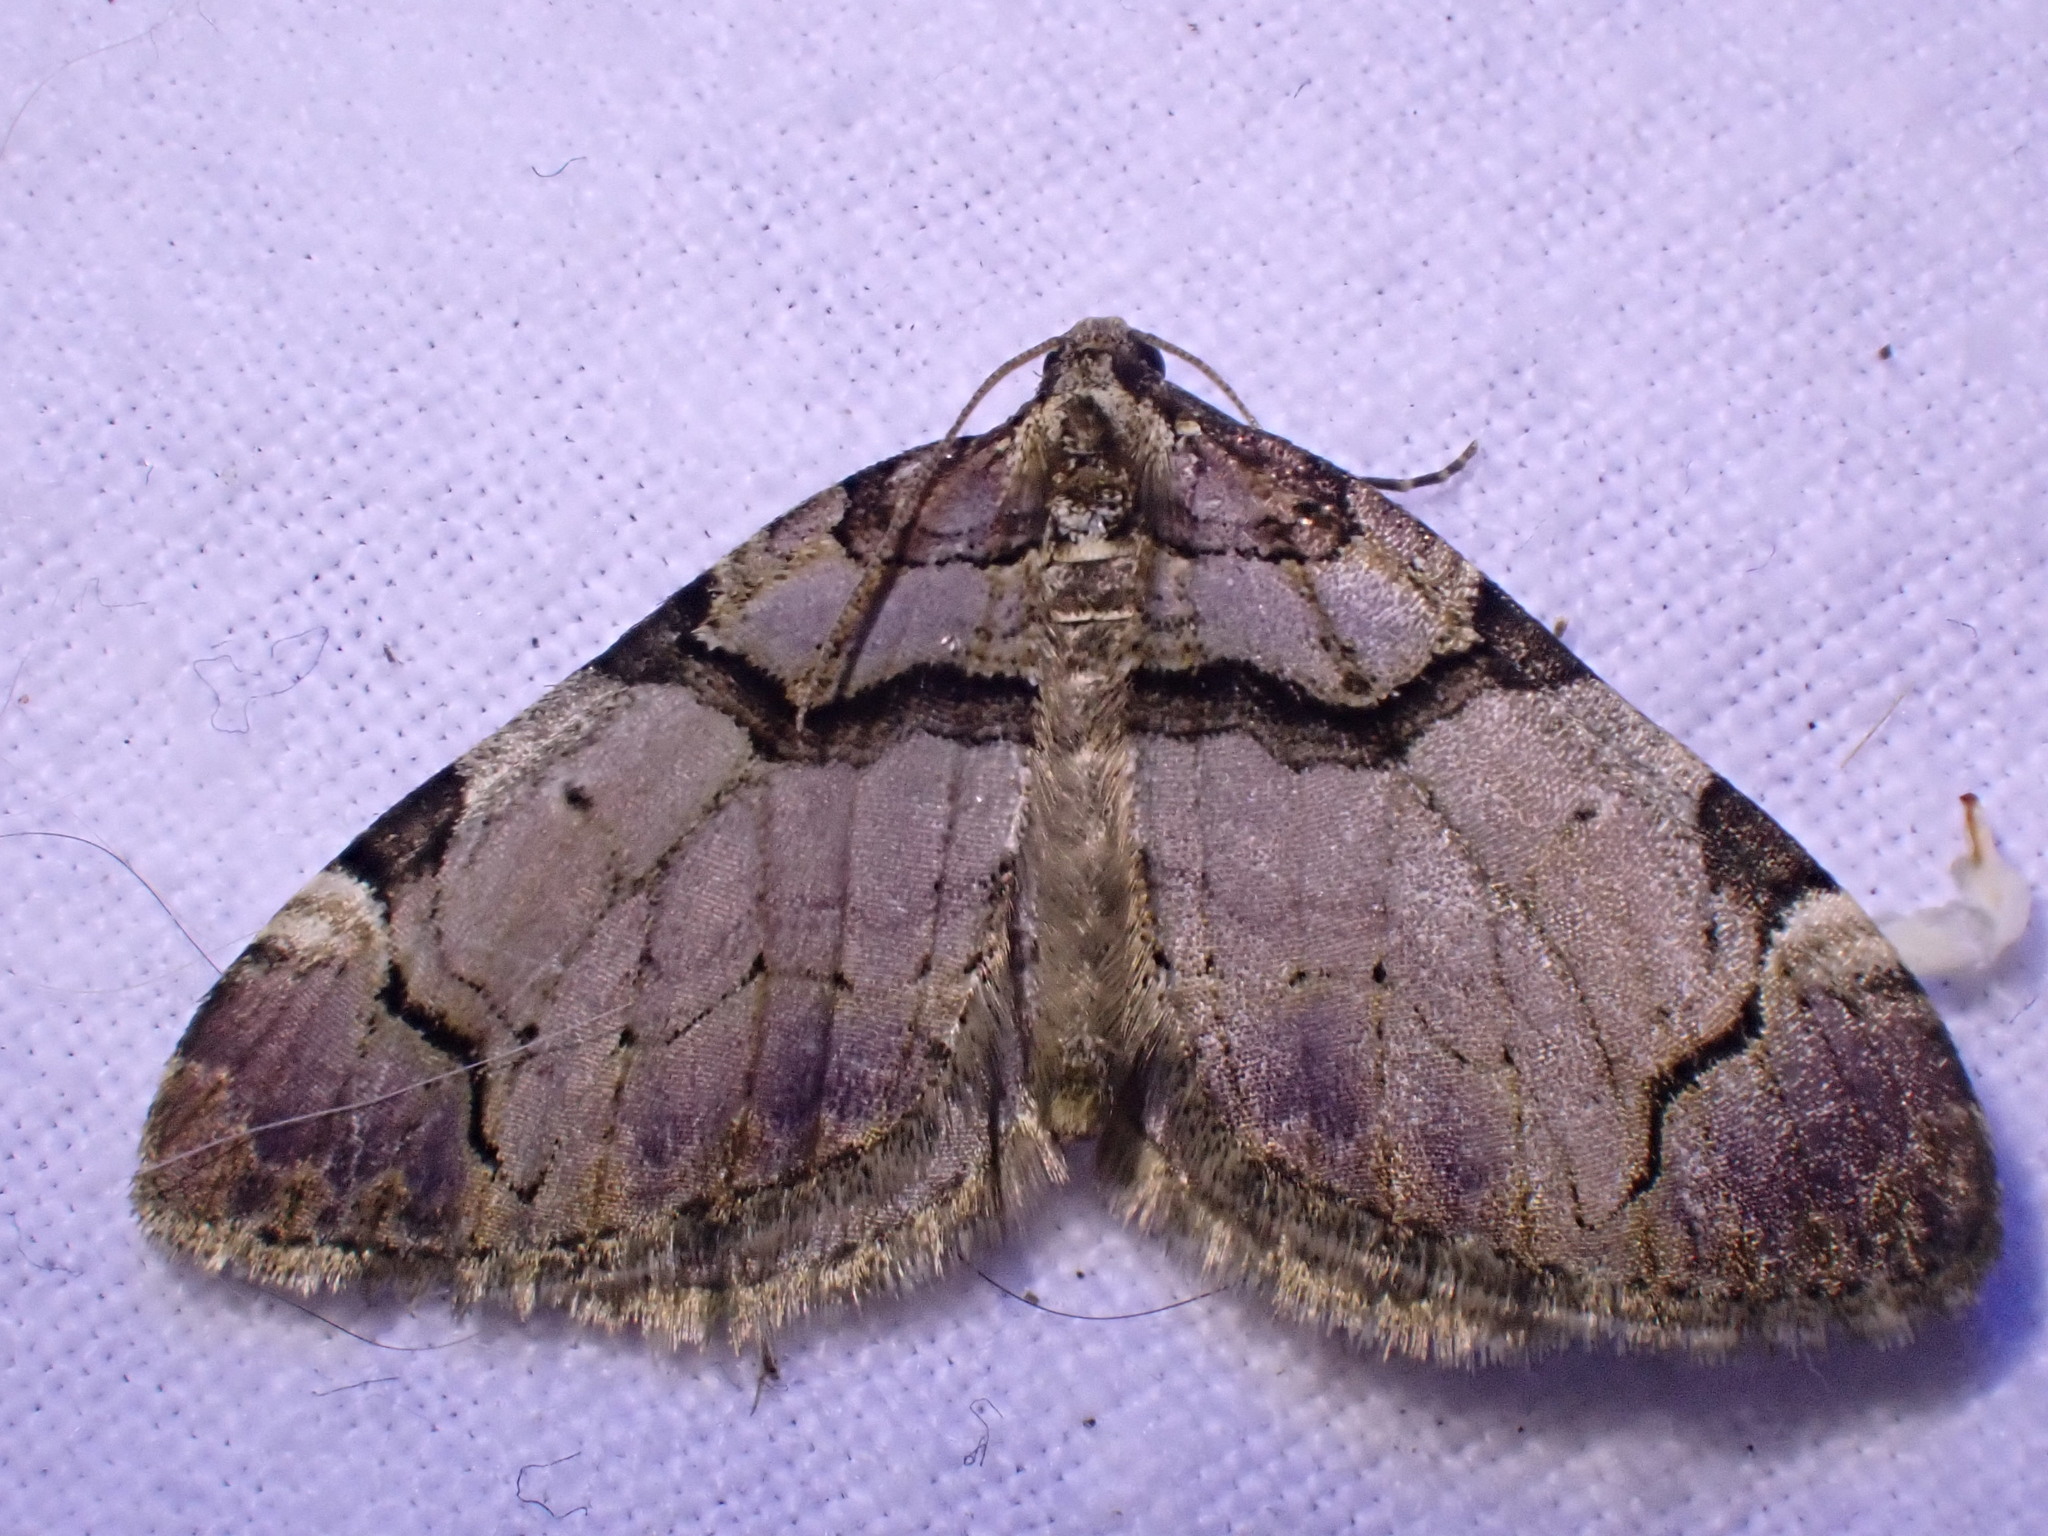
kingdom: Animalia
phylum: Arthropoda
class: Insecta
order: Lepidoptera
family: Geometridae
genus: Anticlea
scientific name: Anticlea derivata
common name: Streamer
